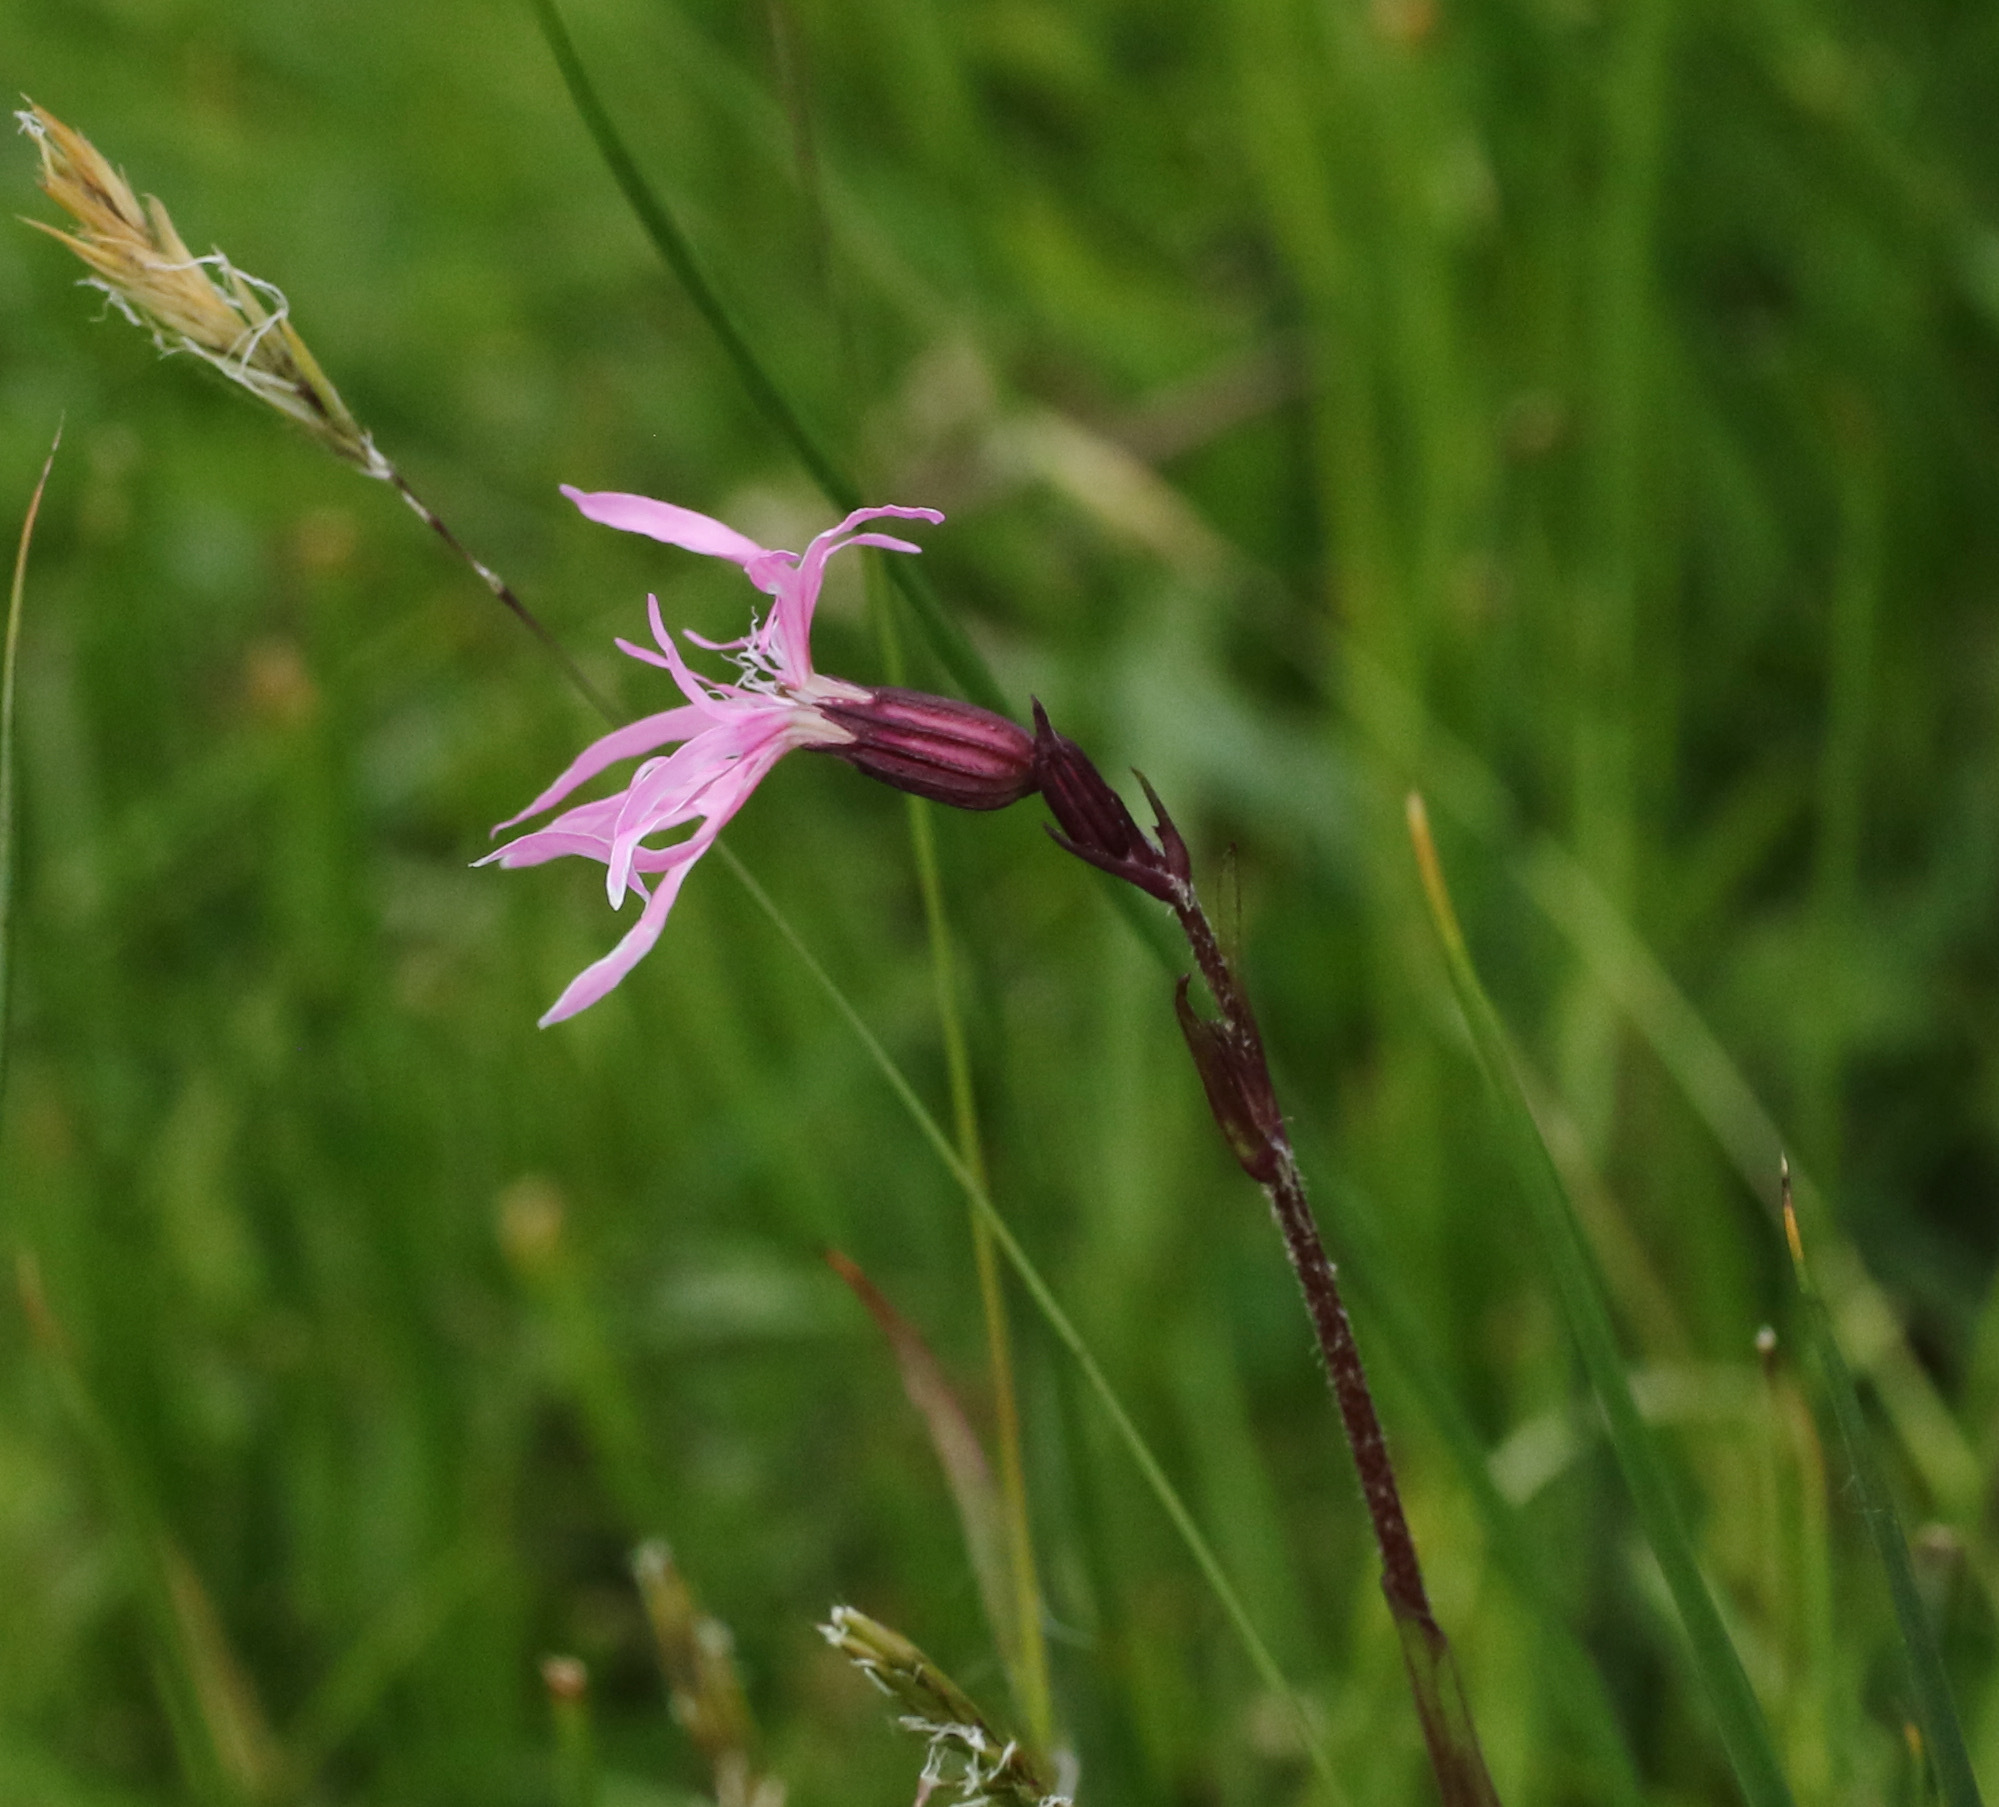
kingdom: Plantae
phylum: Tracheophyta
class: Magnoliopsida
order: Caryophyllales
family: Caryophyllaceae
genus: Silene
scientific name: Silene flos-cuculi
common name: Ragged-robin
